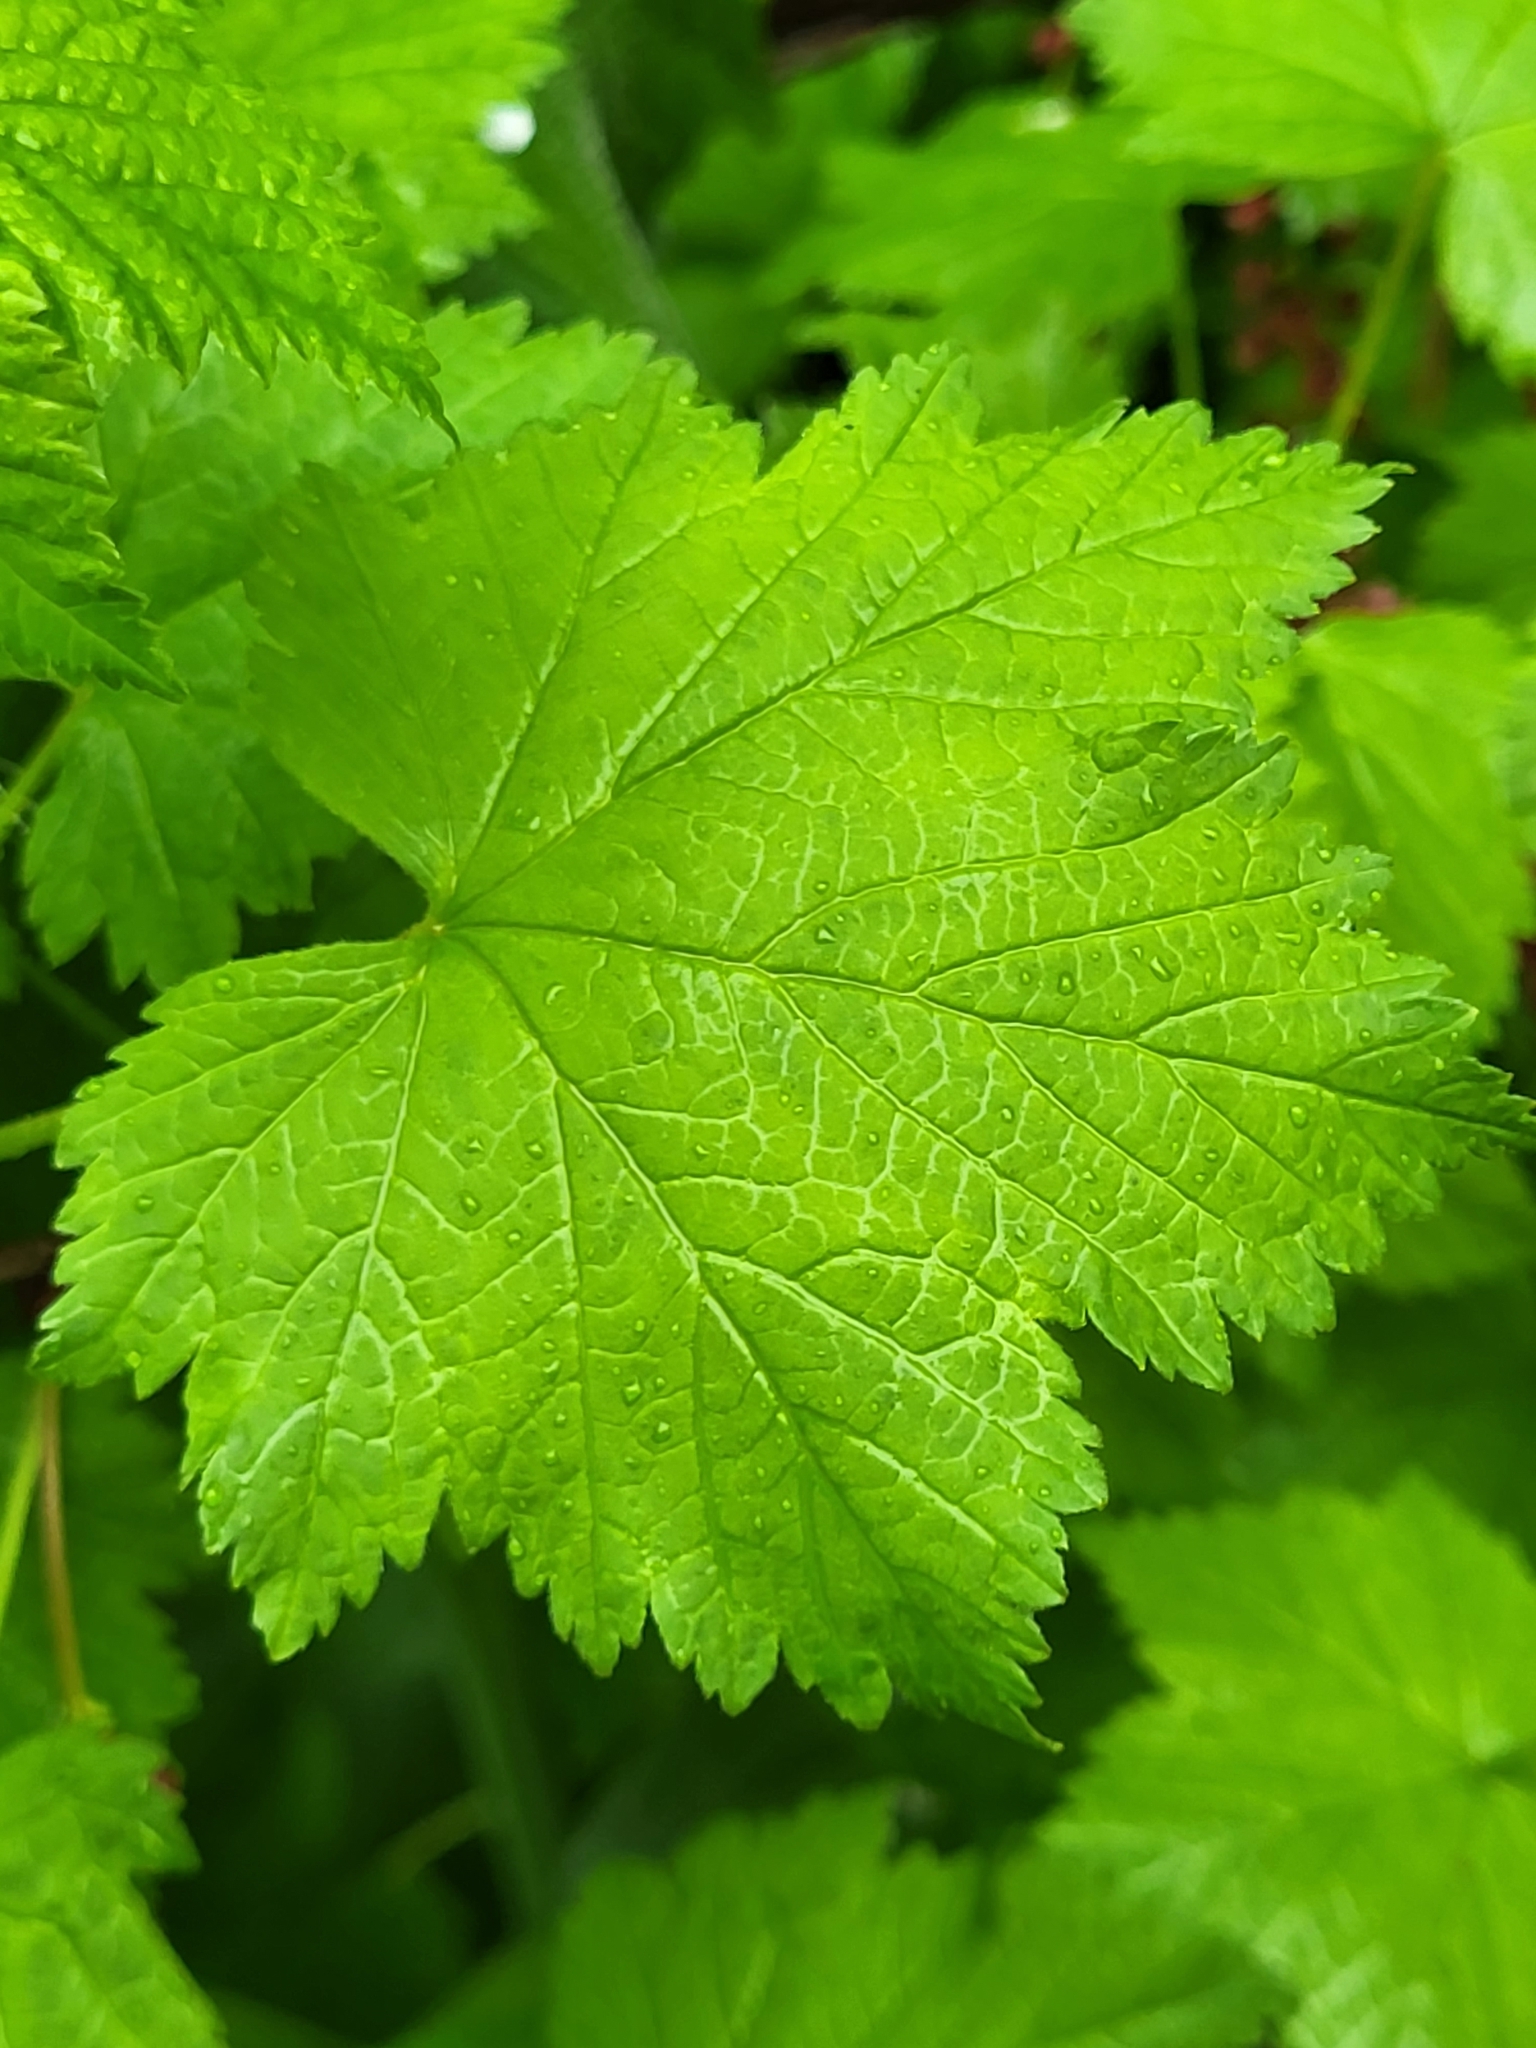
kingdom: Plantae
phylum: Tracheophyta
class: Magnoliopsida
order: Saxifragales
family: Grossulariaceae
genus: Ribes
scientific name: Ribes biebersteinii
